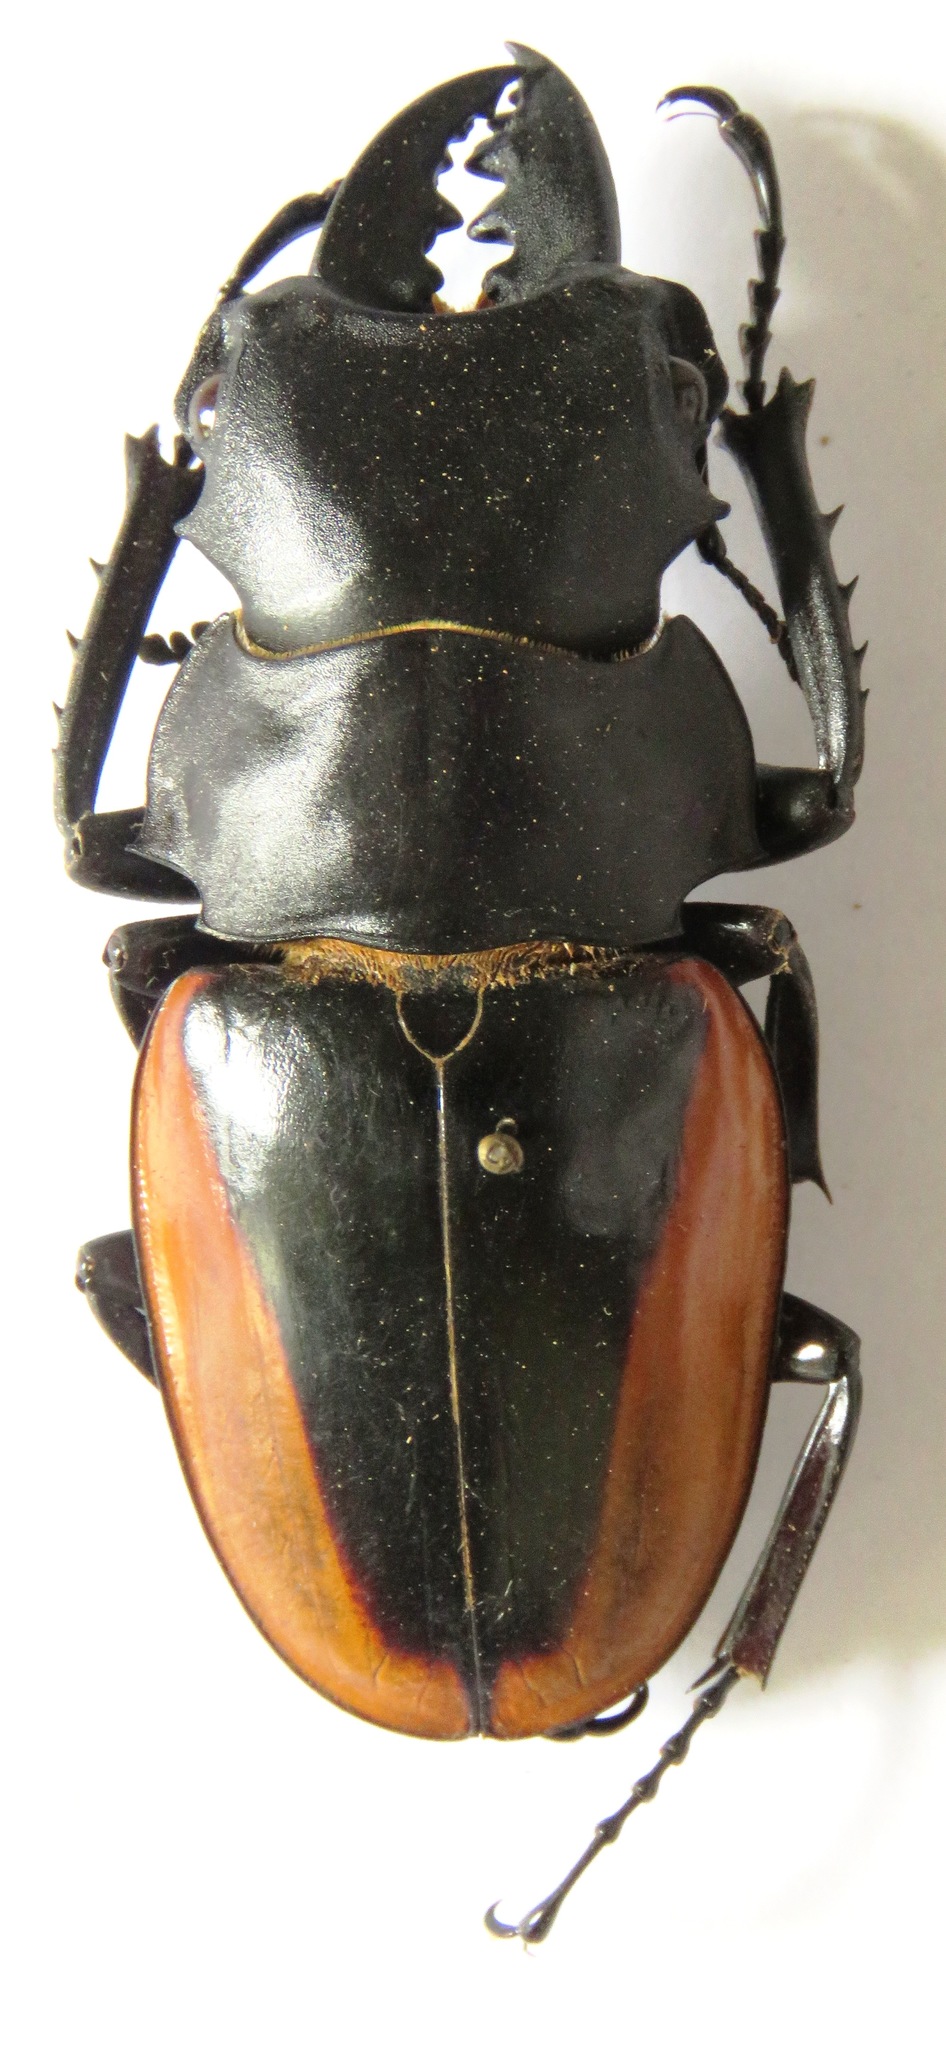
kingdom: Animalia
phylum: Arthropoda
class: Insecta
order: Coleoptera
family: Lucanidae
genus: Odontolabis
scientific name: Odontolabis cuvera
